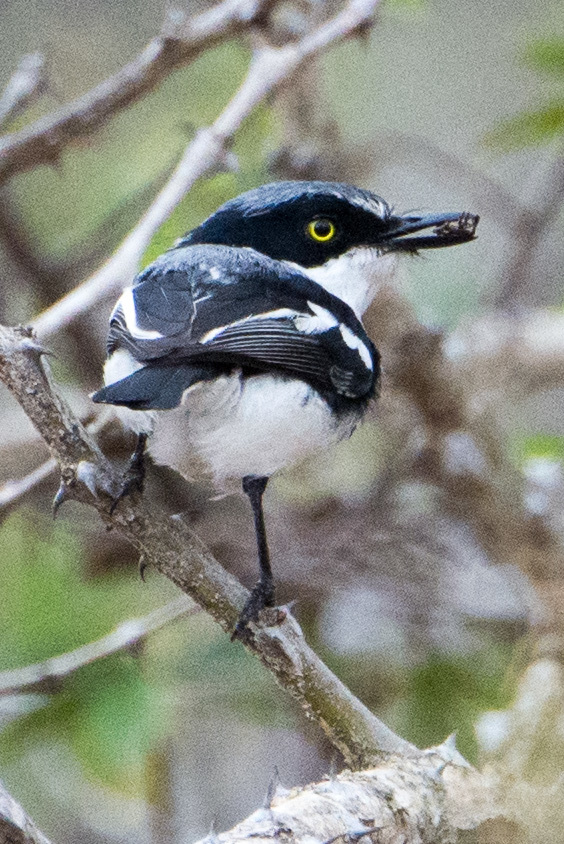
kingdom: Animalia
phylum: Chordata
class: Aves
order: Passeriformes
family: Platysteiridae
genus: Batis
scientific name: Batis molitor
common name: Chinspot batis
